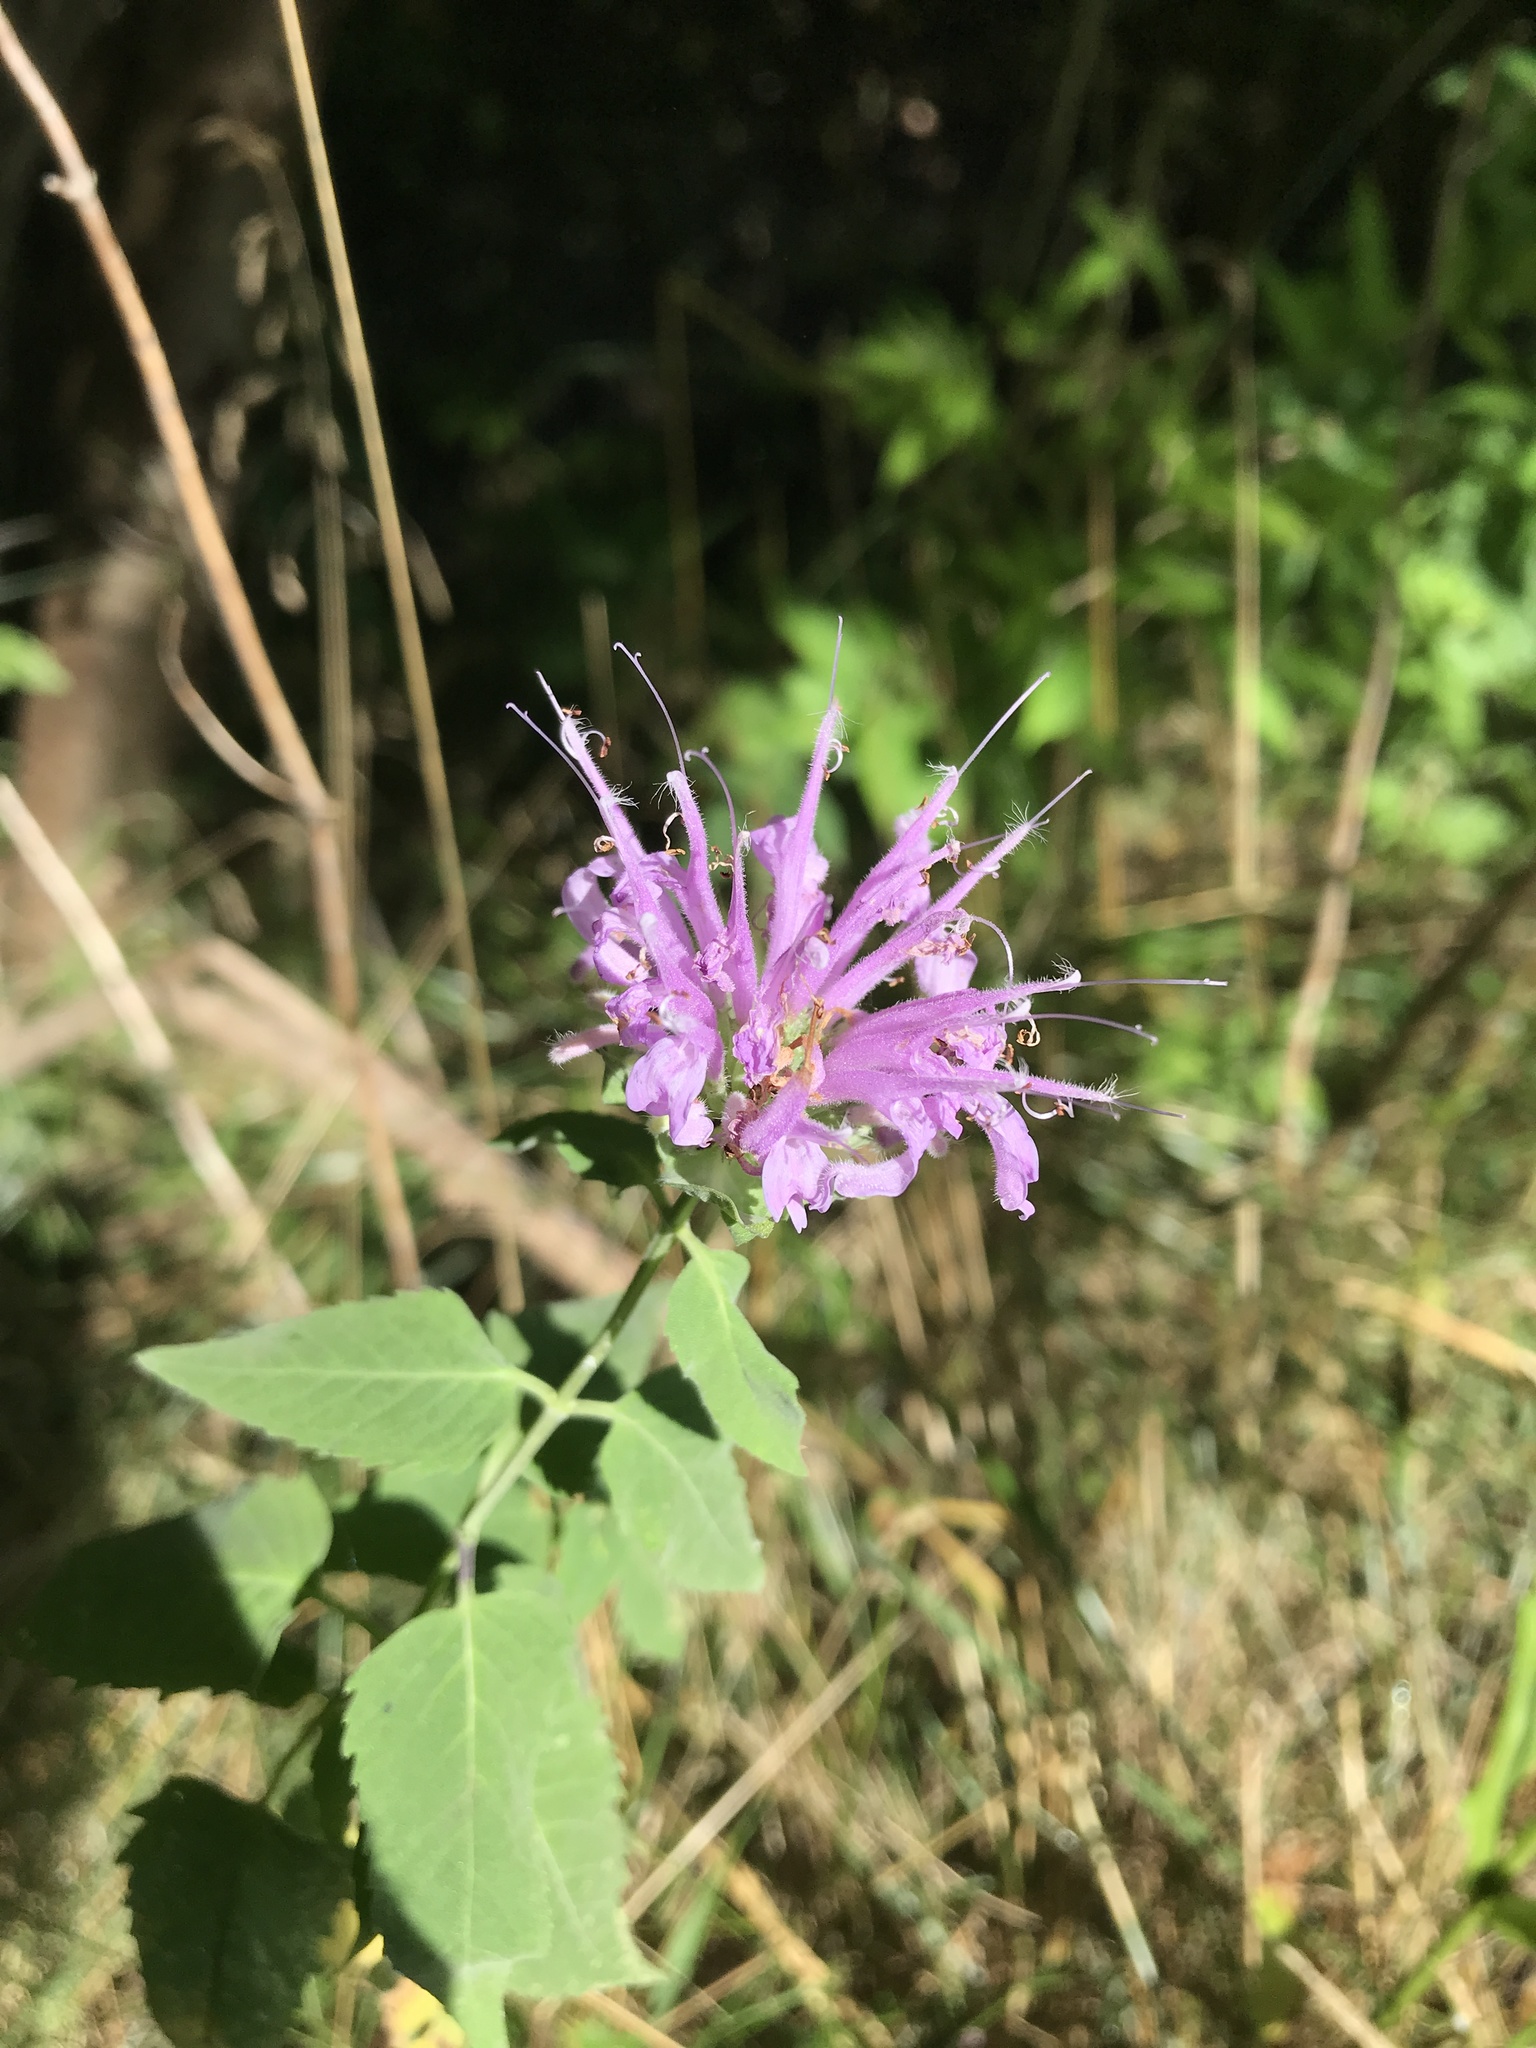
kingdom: Plantae
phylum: Tracheophyta
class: Magnoliopsida
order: Lamiales
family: Lamiaceae
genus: Monarda
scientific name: Monarda fistulosa
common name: Purple beebalm
